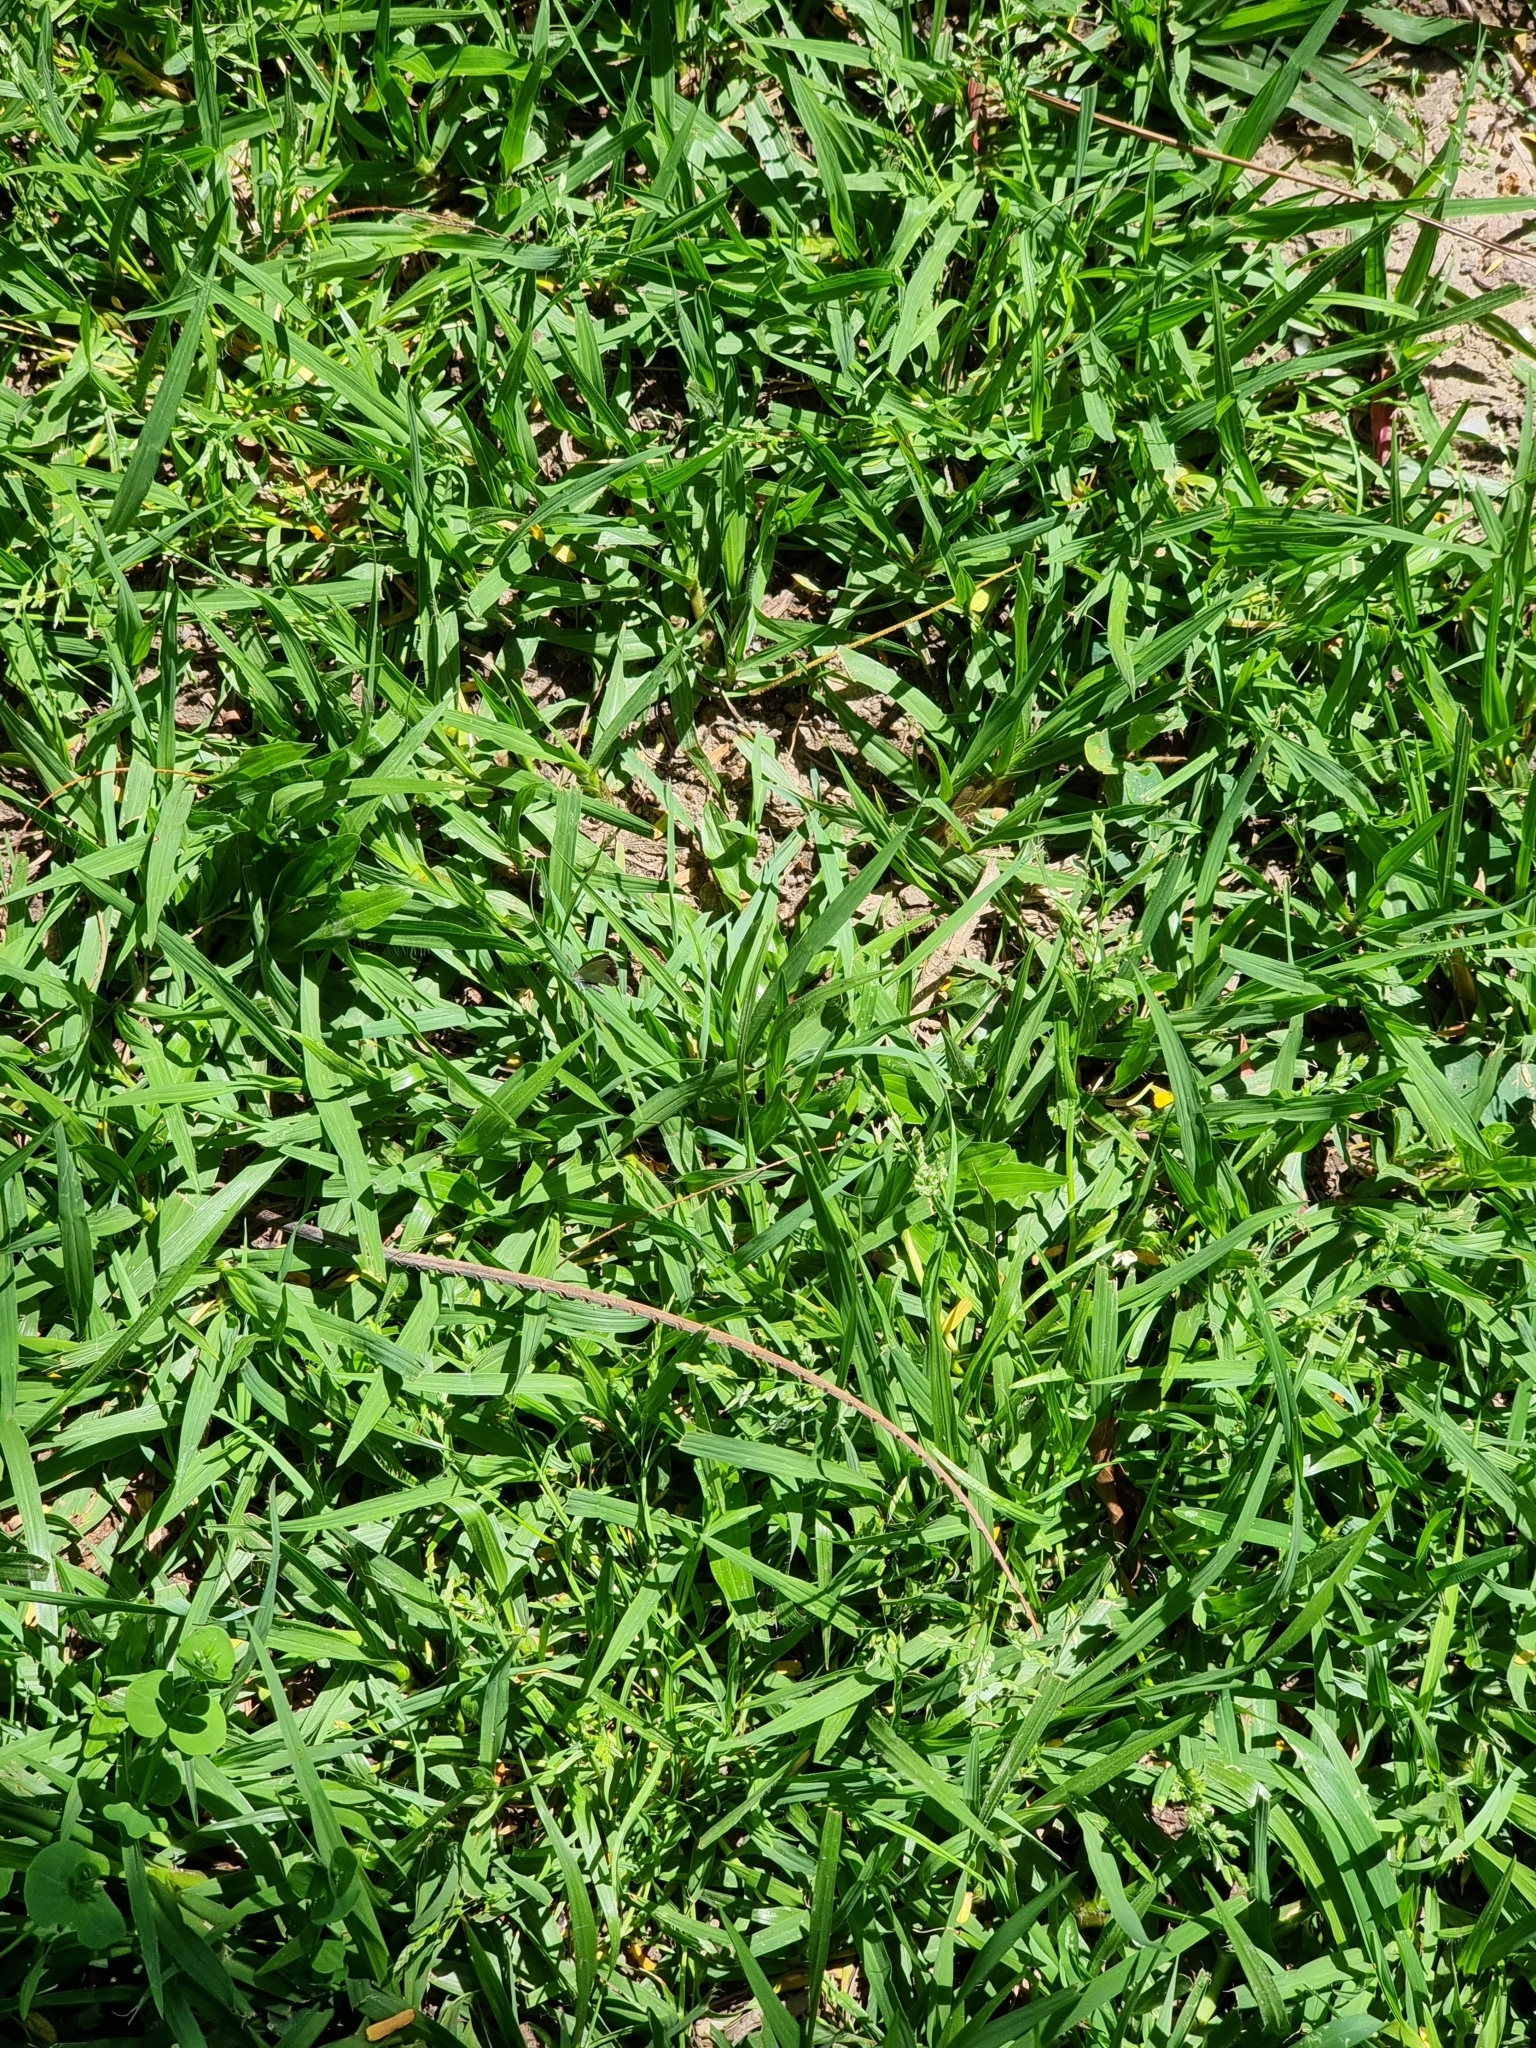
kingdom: Animalia
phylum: Arthropoda
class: Insecta
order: Lepidoptera
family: Lycaenidae
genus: Zizina
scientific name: Zizina otis
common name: Lesser grass blue
